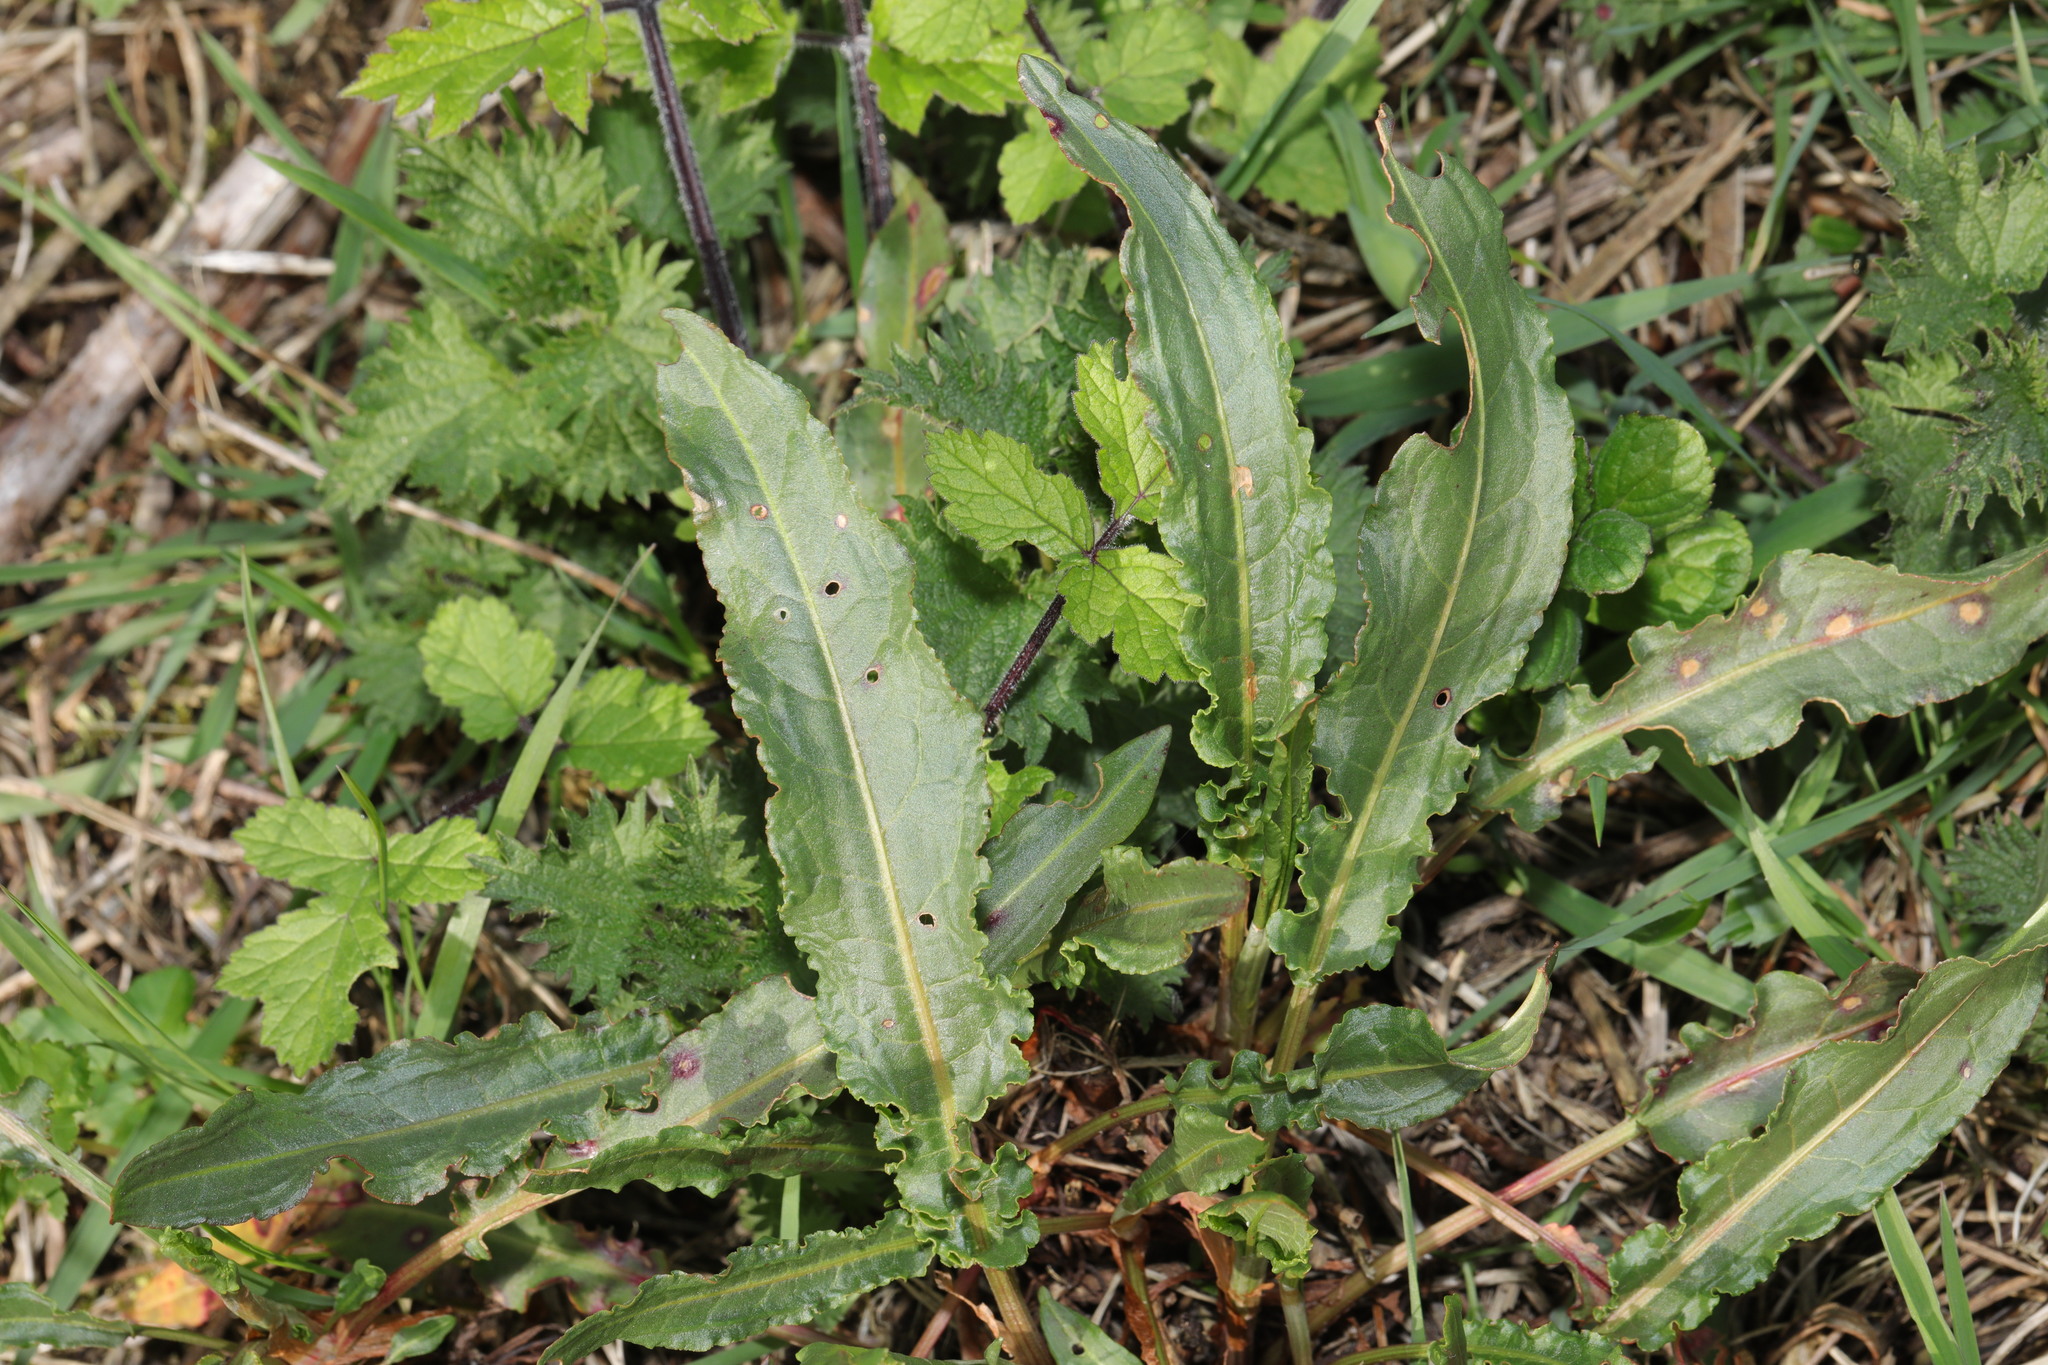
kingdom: Plantae
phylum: Tracheophyta
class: Magnoliopsida
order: Caryophyllales
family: Polygonaceae
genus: Rumex
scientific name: Rumex crispus
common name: Curled dock
